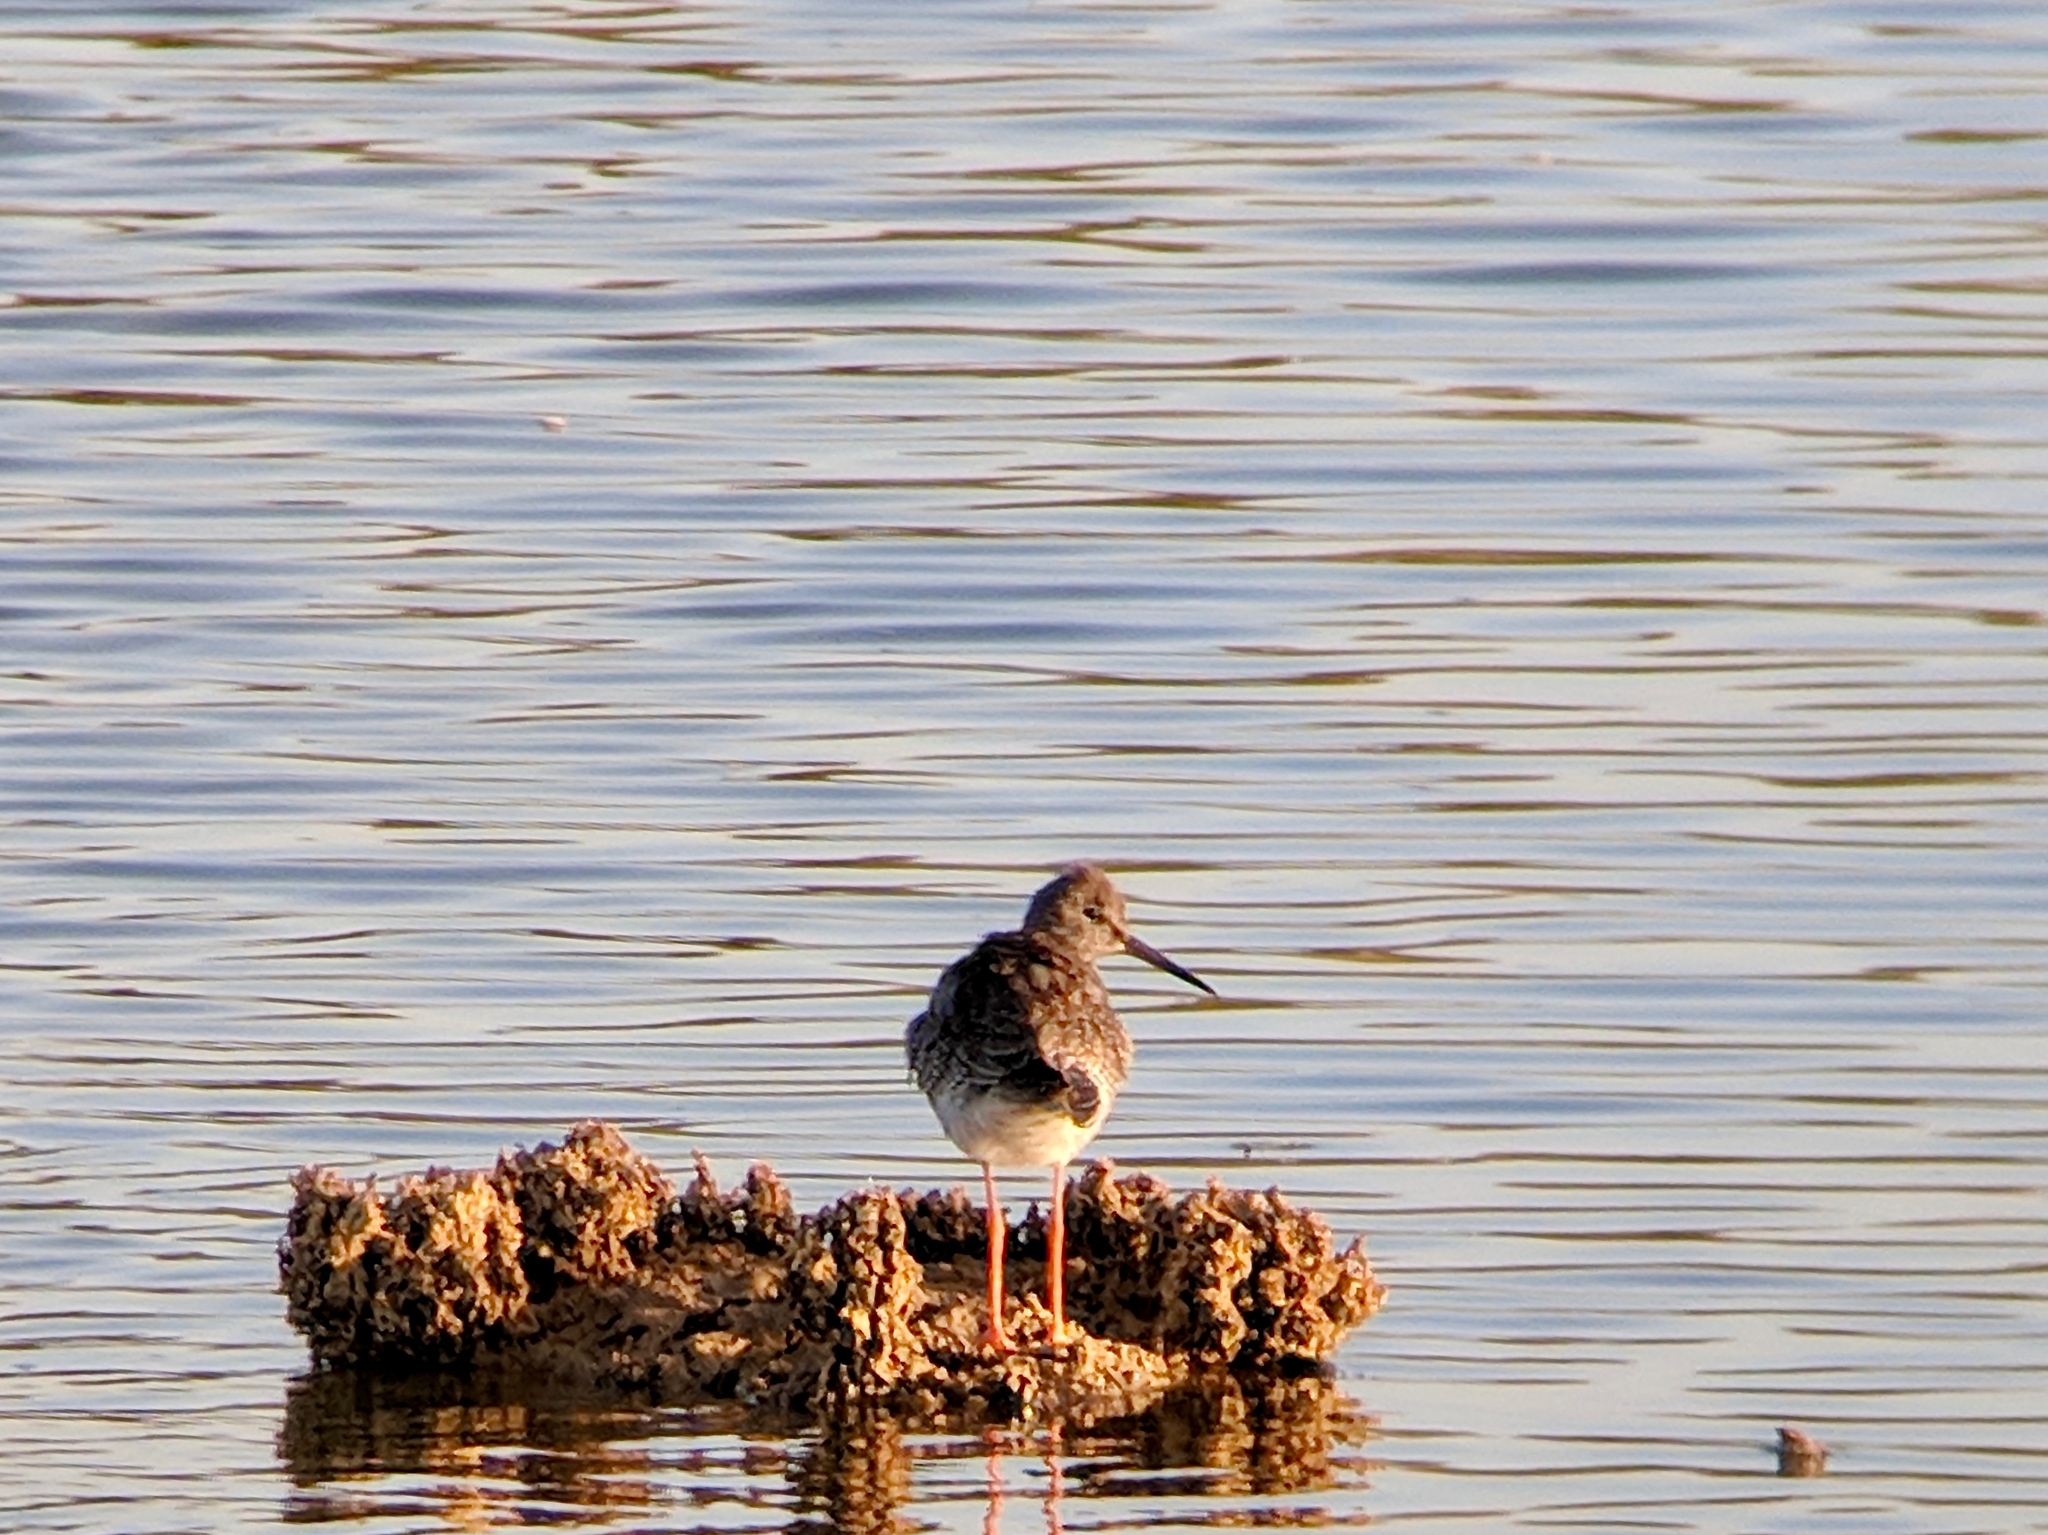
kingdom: Animalia
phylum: Chordata
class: Aves
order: Charadriiformes
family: Scolopacidae
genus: Tringa
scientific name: Tringa totanus
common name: Common redshank
